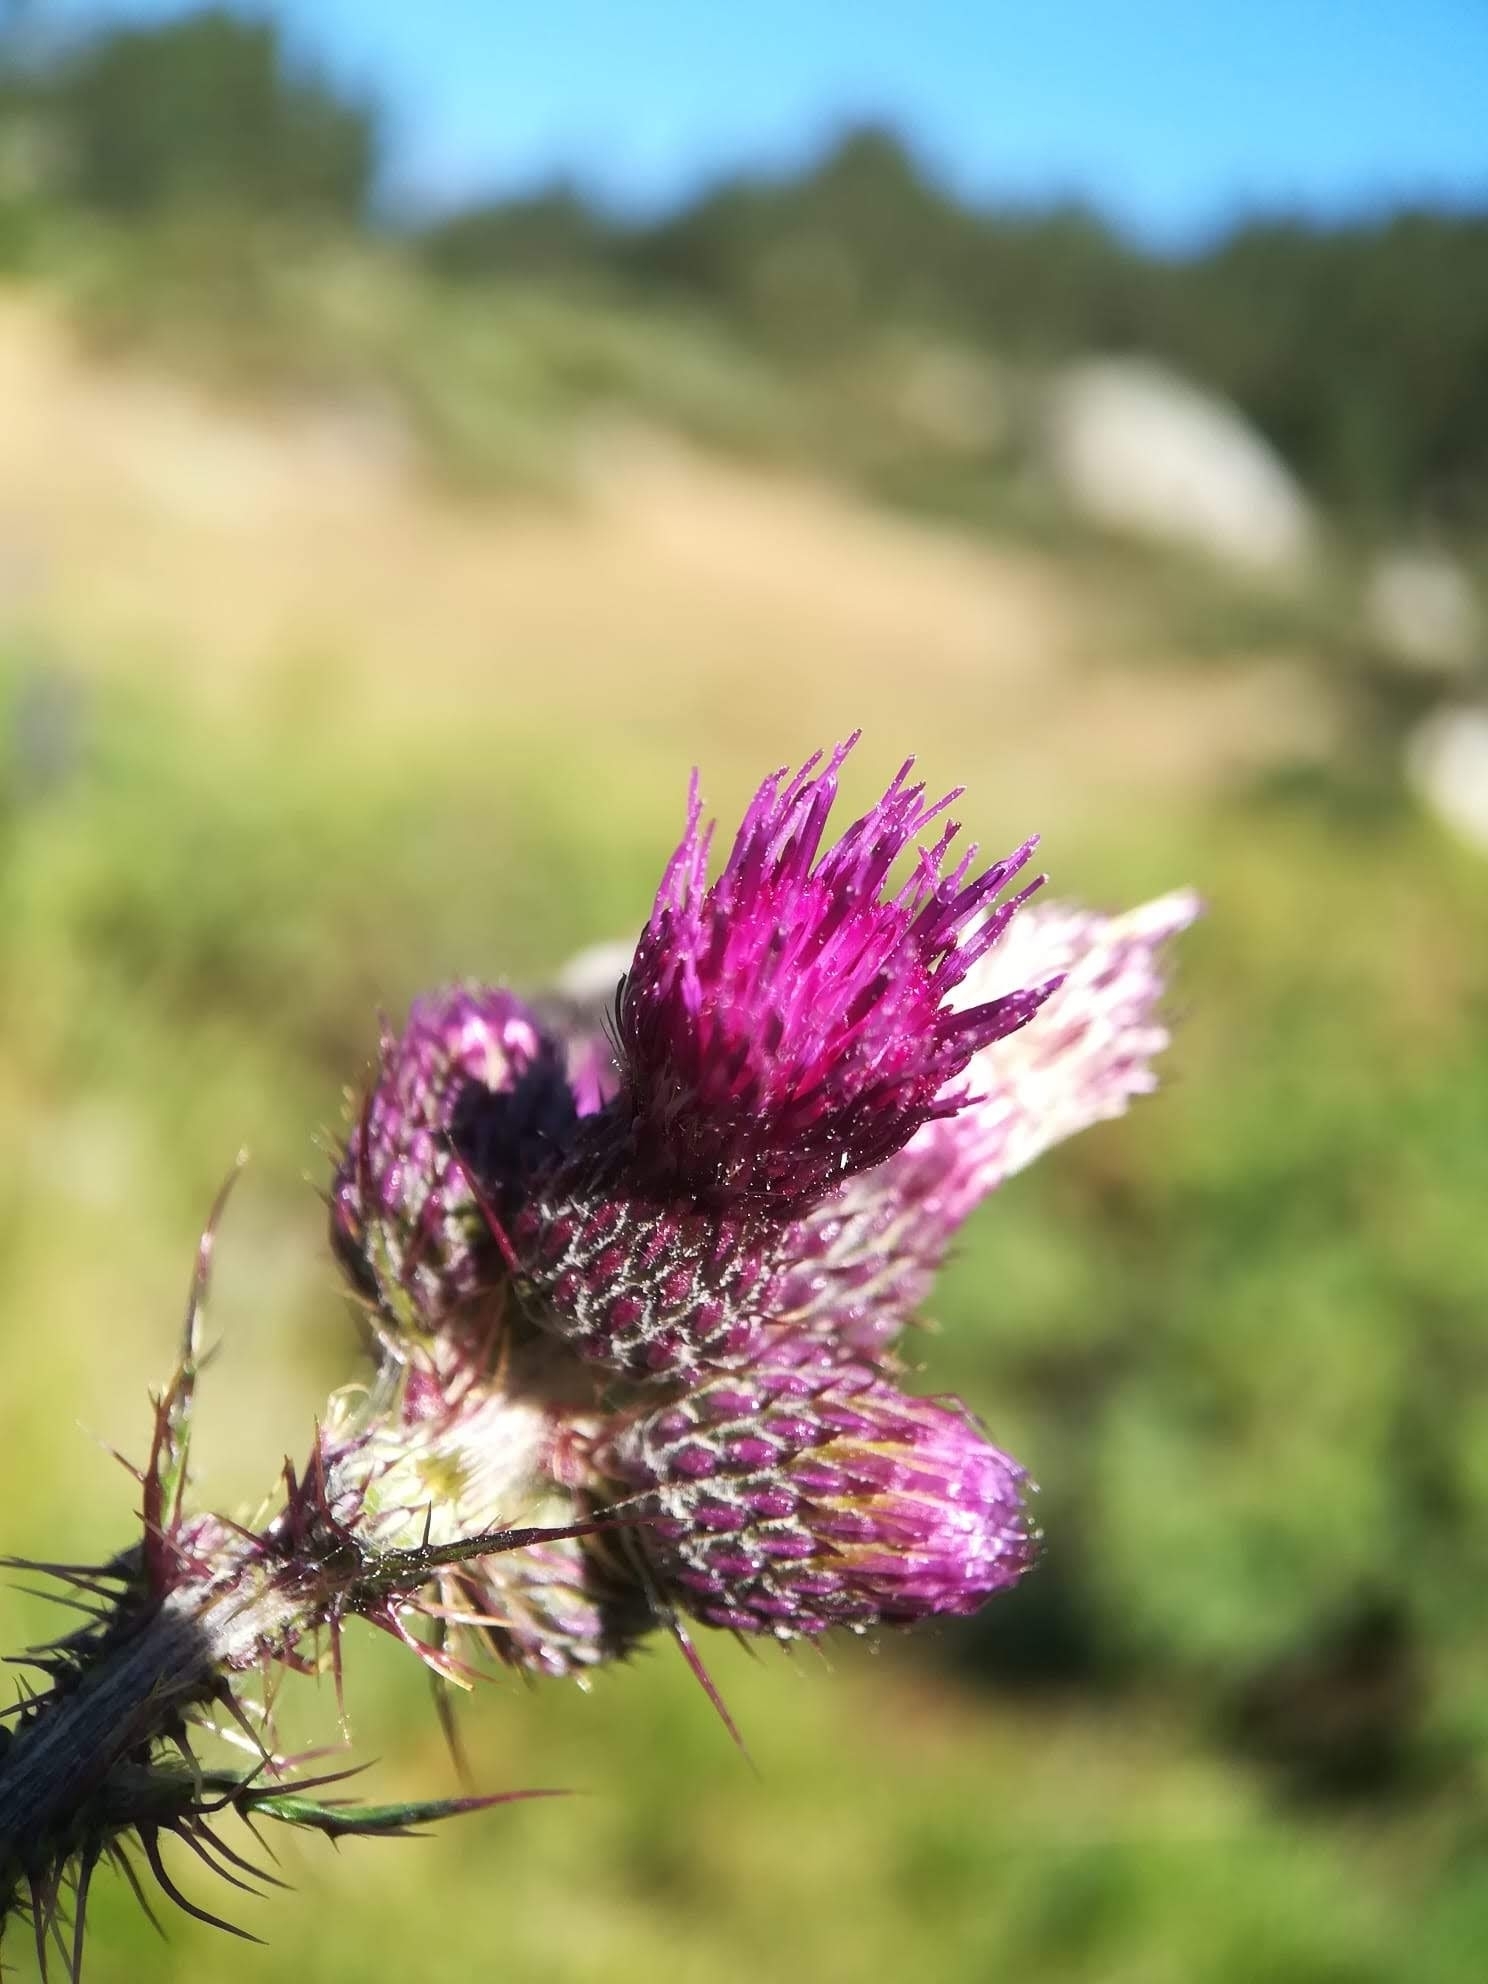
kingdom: Plantae
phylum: Tracheophyta
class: Magnoliopsida
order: Asterales
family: Asteraceae
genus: Cirsium
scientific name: Cirsium palustre
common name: Marsh thistle
